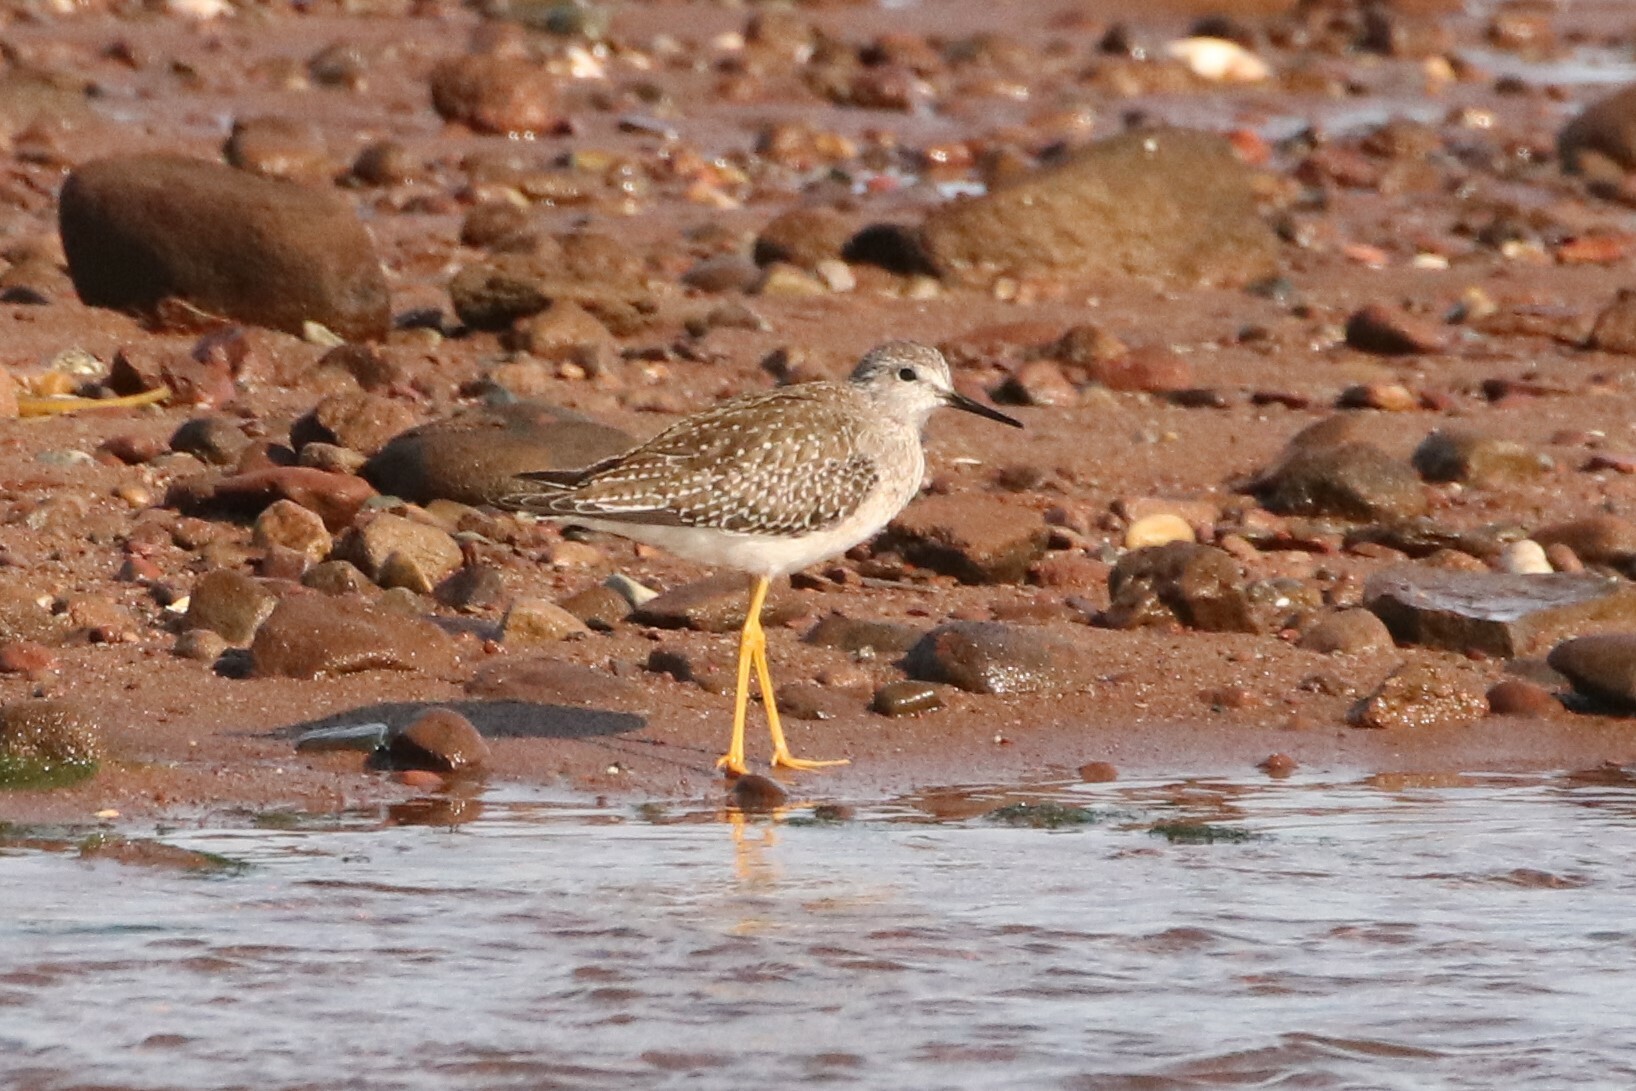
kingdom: Animalia
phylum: Chordata
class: Aves
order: Charadriiformes
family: Scolopacidae
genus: Tringa
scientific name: Tringa flavipes
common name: Lesser yellowlegs
